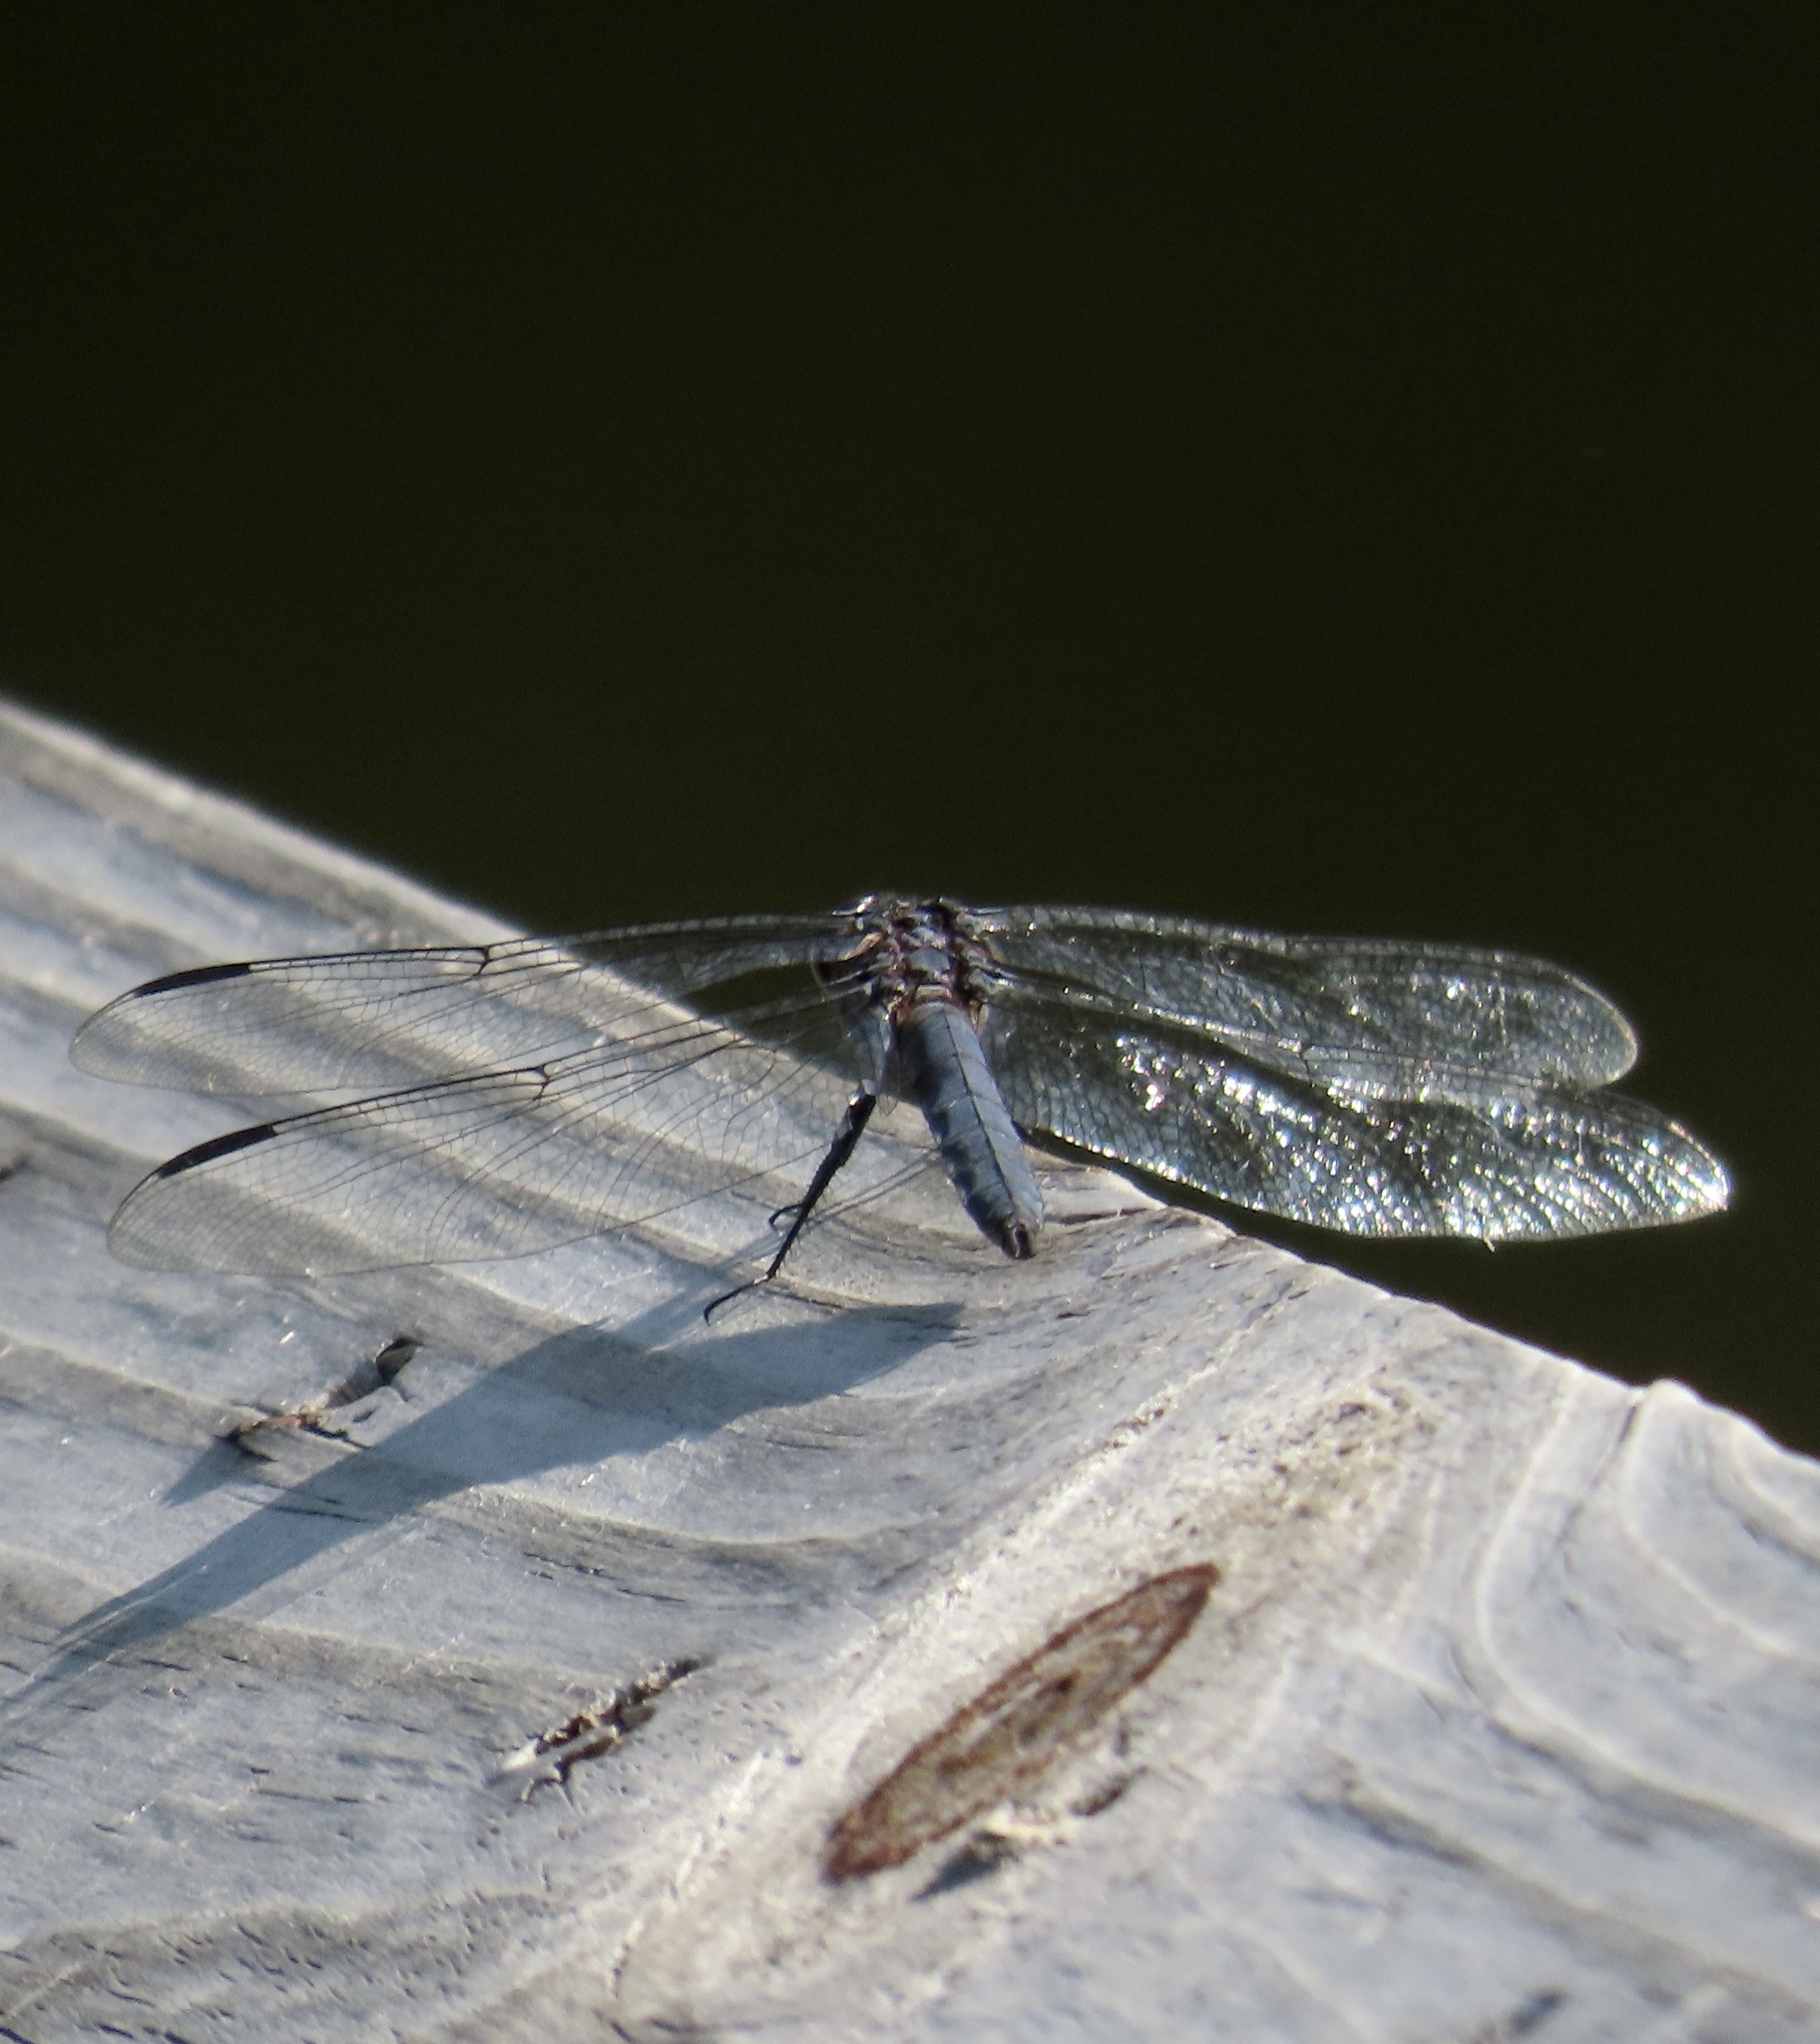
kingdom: Animalia
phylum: Arthropoda
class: Insecta
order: Odonata
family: Libellulidae
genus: Libellula
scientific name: Libellula incesta
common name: Slaty skimmer
